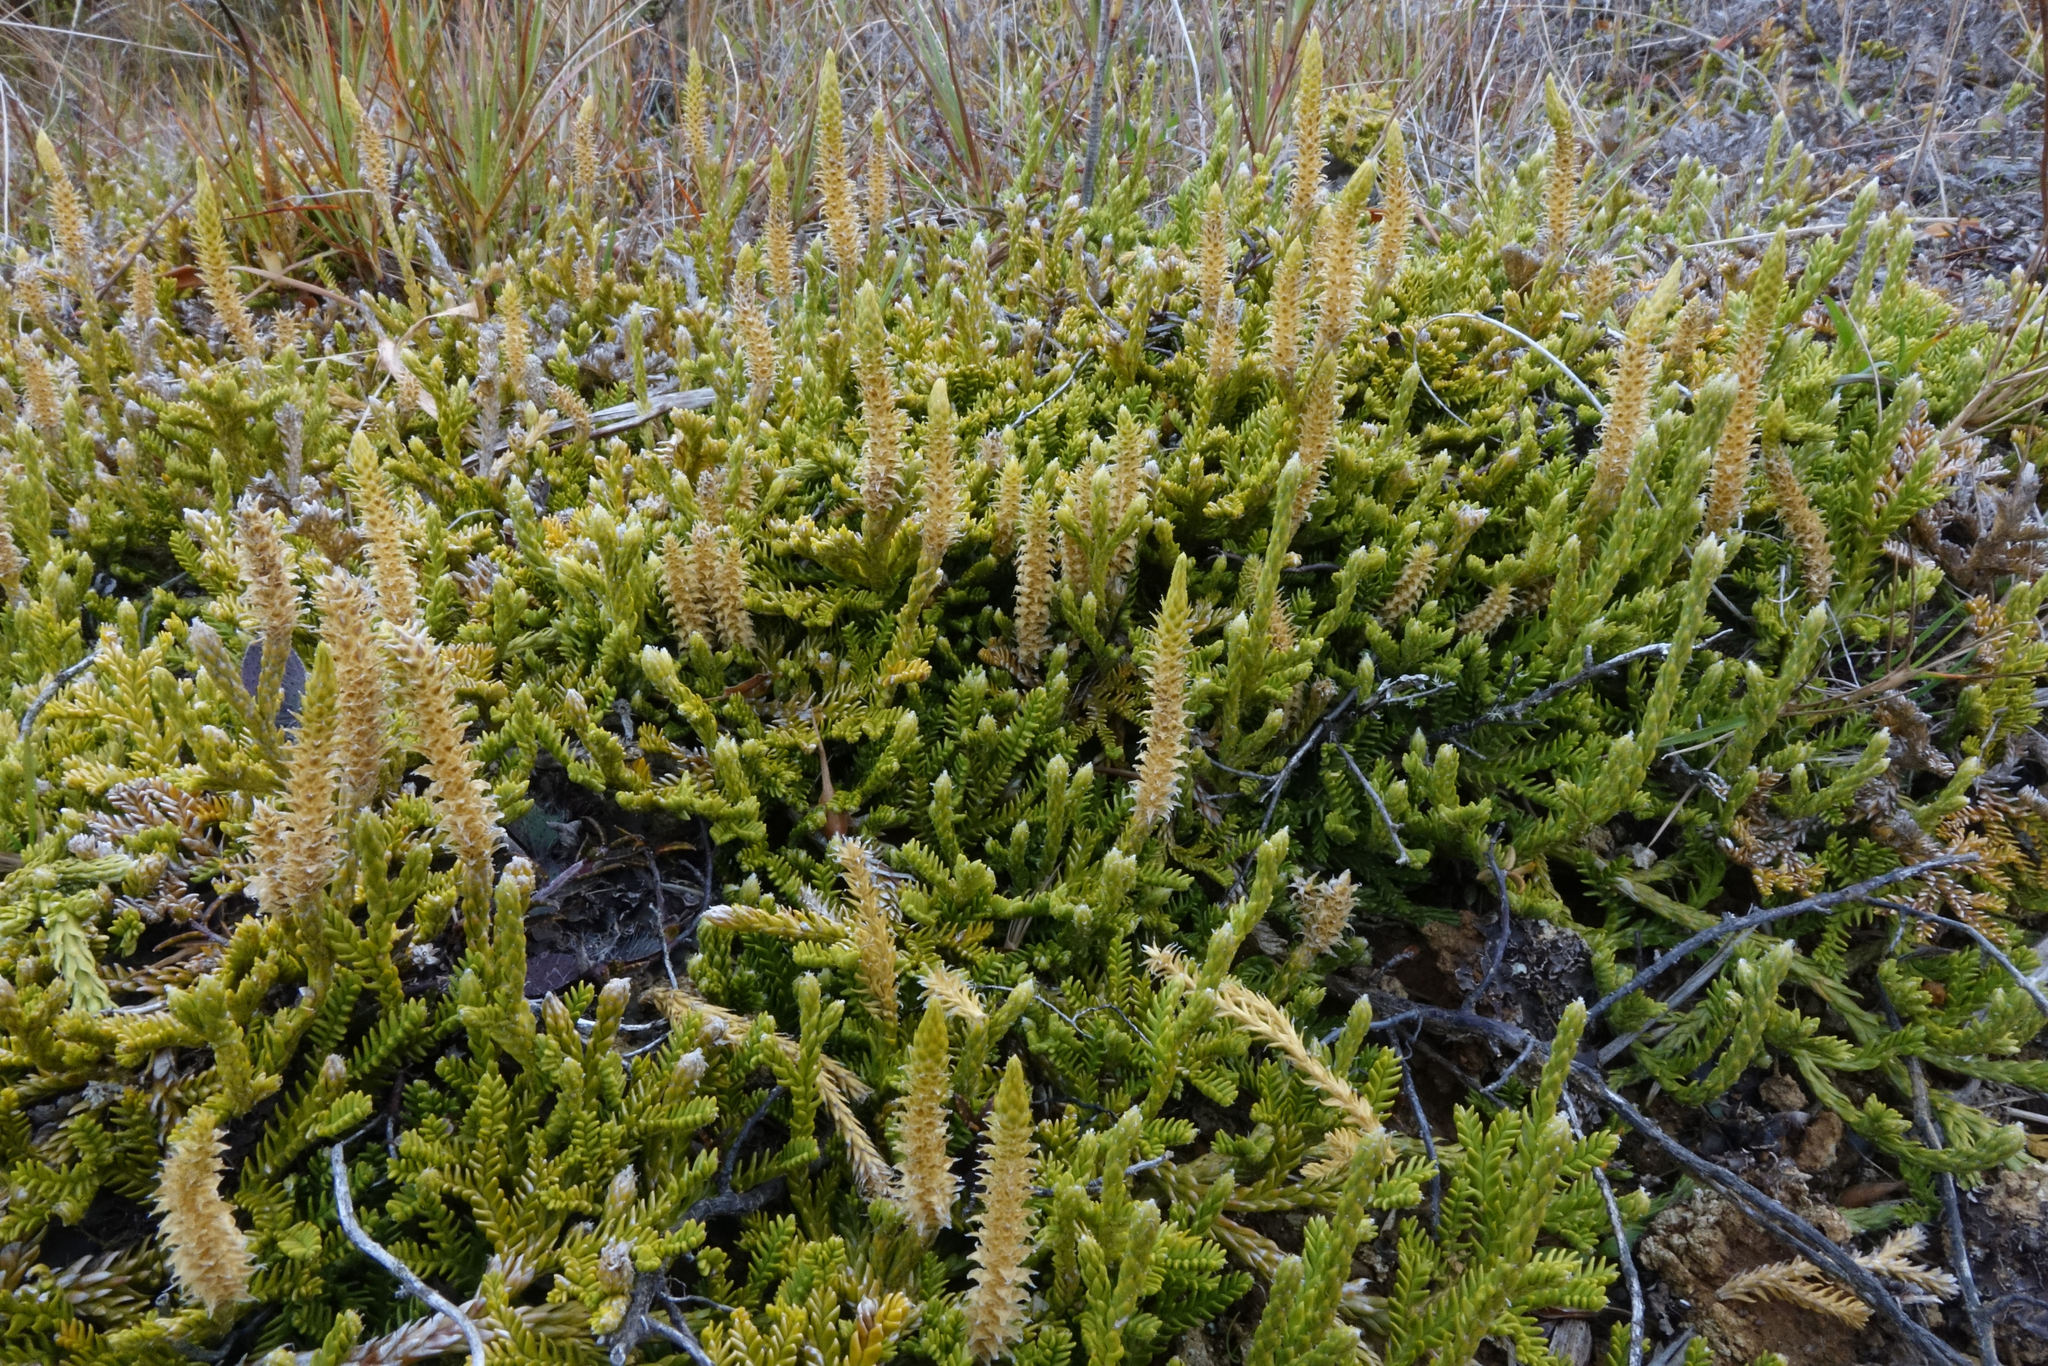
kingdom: Plantae
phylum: Tracheophyta
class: Lycopodiopsida
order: Lycopodiales
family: Lycopodiaceae
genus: Diphasium
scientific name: Diphasium scariosum
